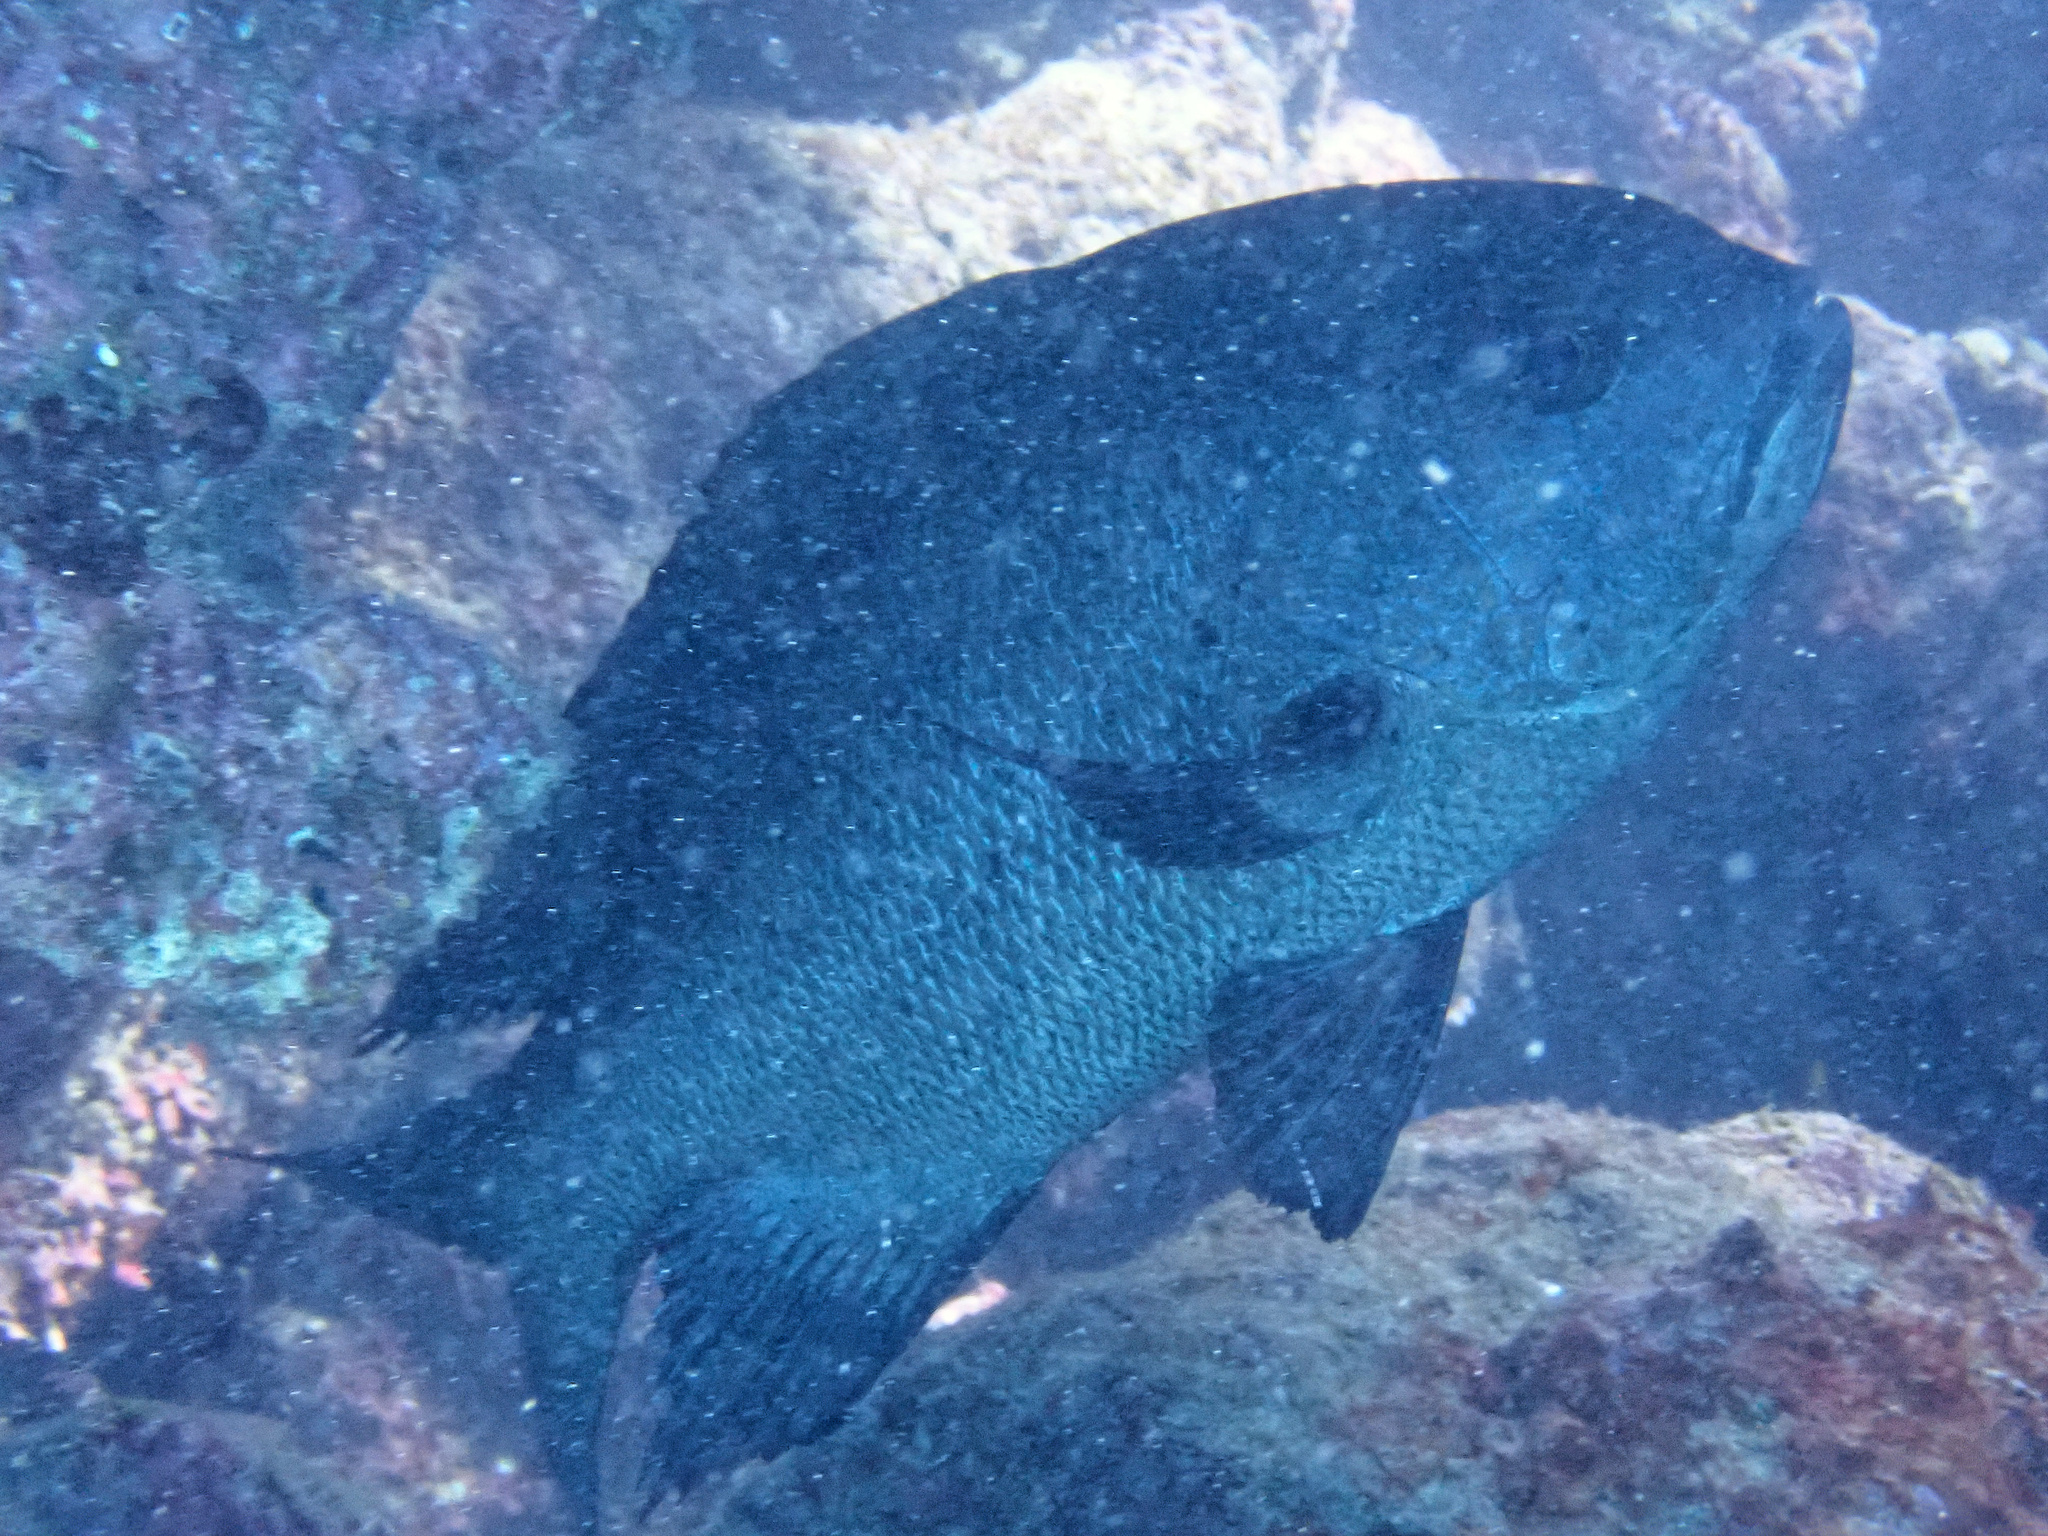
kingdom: Animalia
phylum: Chordata
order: Perciformes
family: Lutjanidae
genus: Macolor
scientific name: Macolor niger
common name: Black snapper
